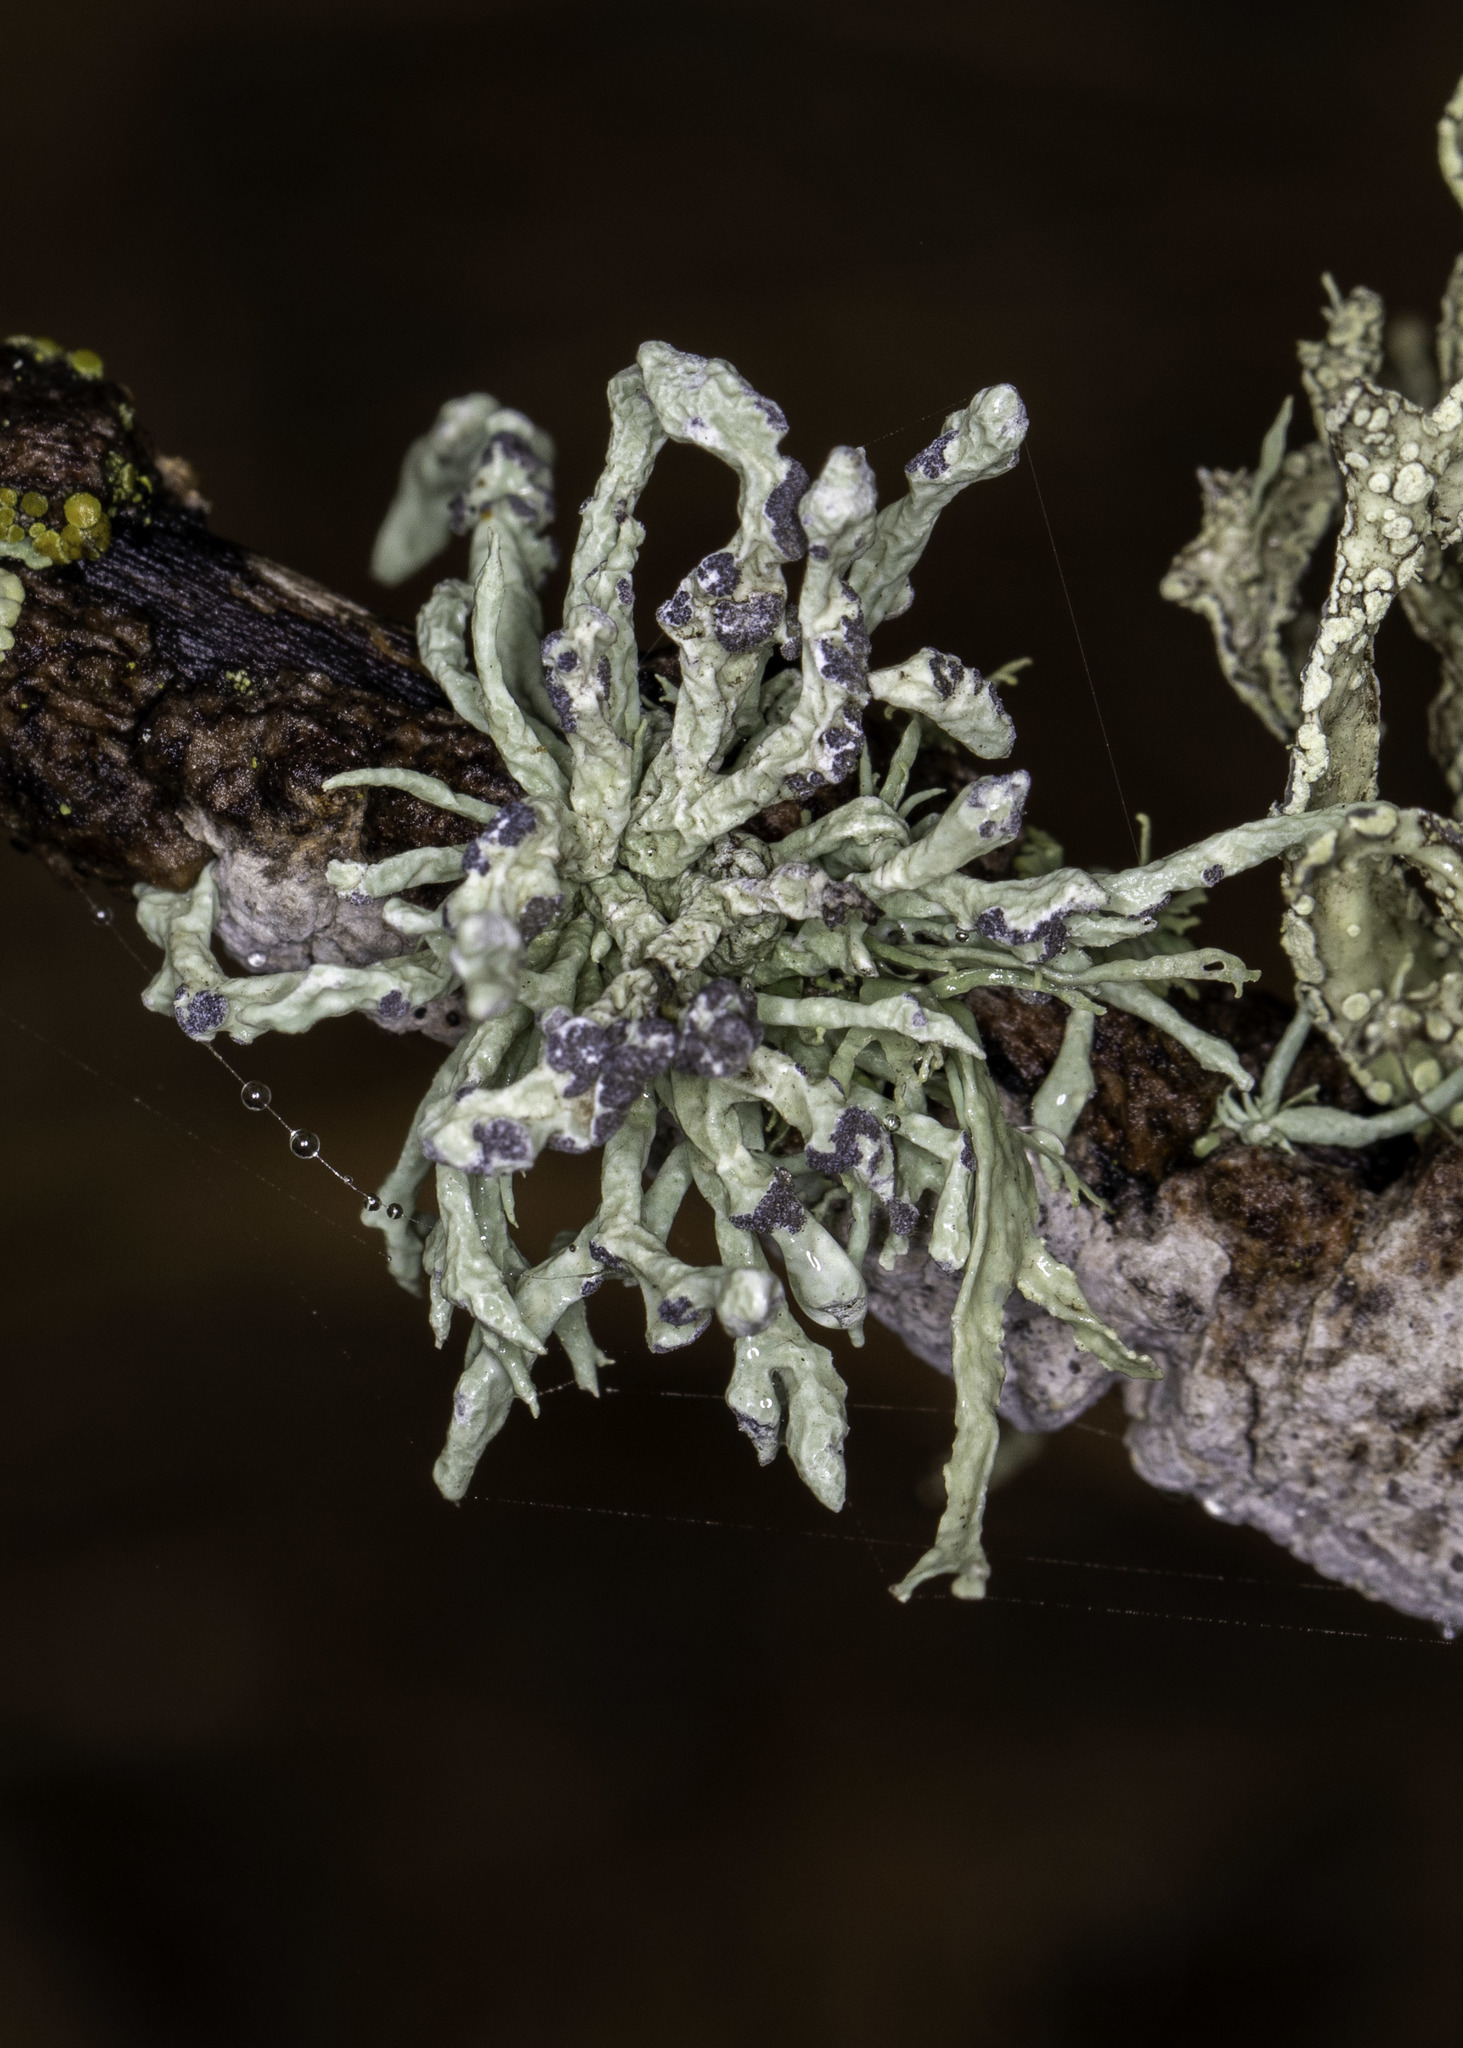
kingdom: Fungi
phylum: Ascomycota
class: Lecanoromycetes
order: Lecanorales
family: Ramalinaceae
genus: Niebla
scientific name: Niebla cephalota
